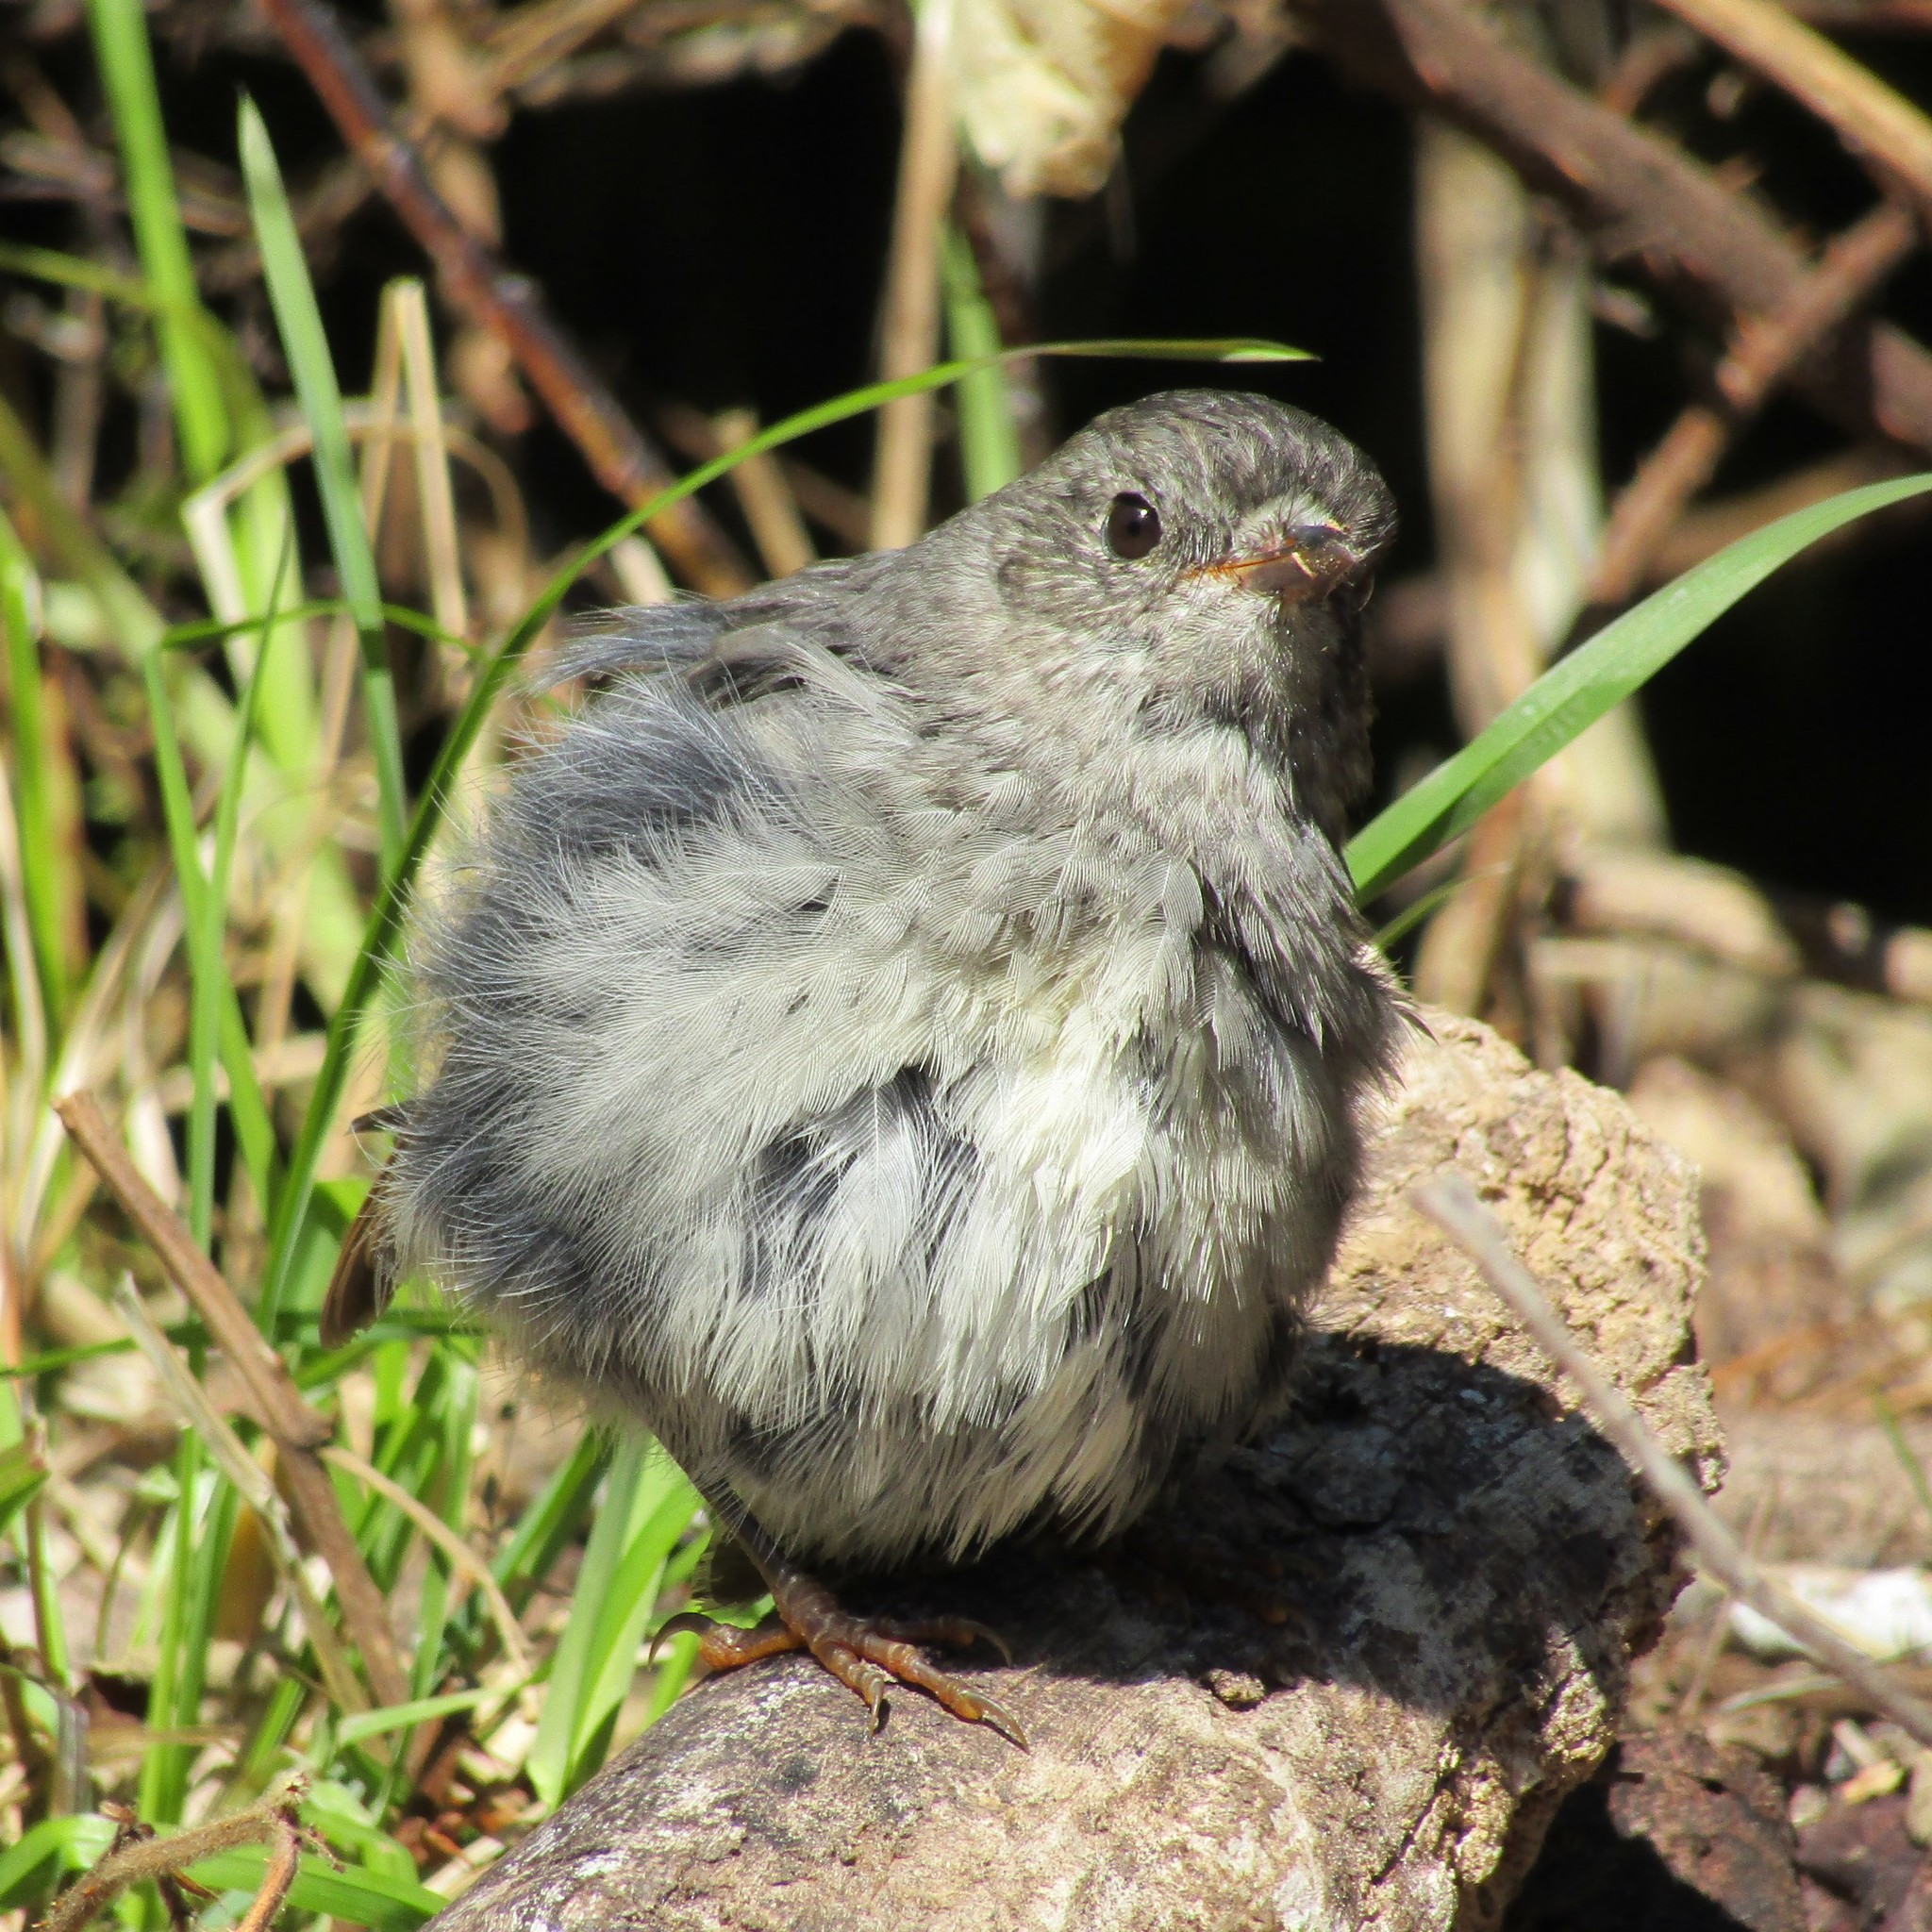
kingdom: Animalia
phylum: Chordata
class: Aves
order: Passeriformes
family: Petroicidae
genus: Petroica
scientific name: Petroica australis
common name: New zealand robin
